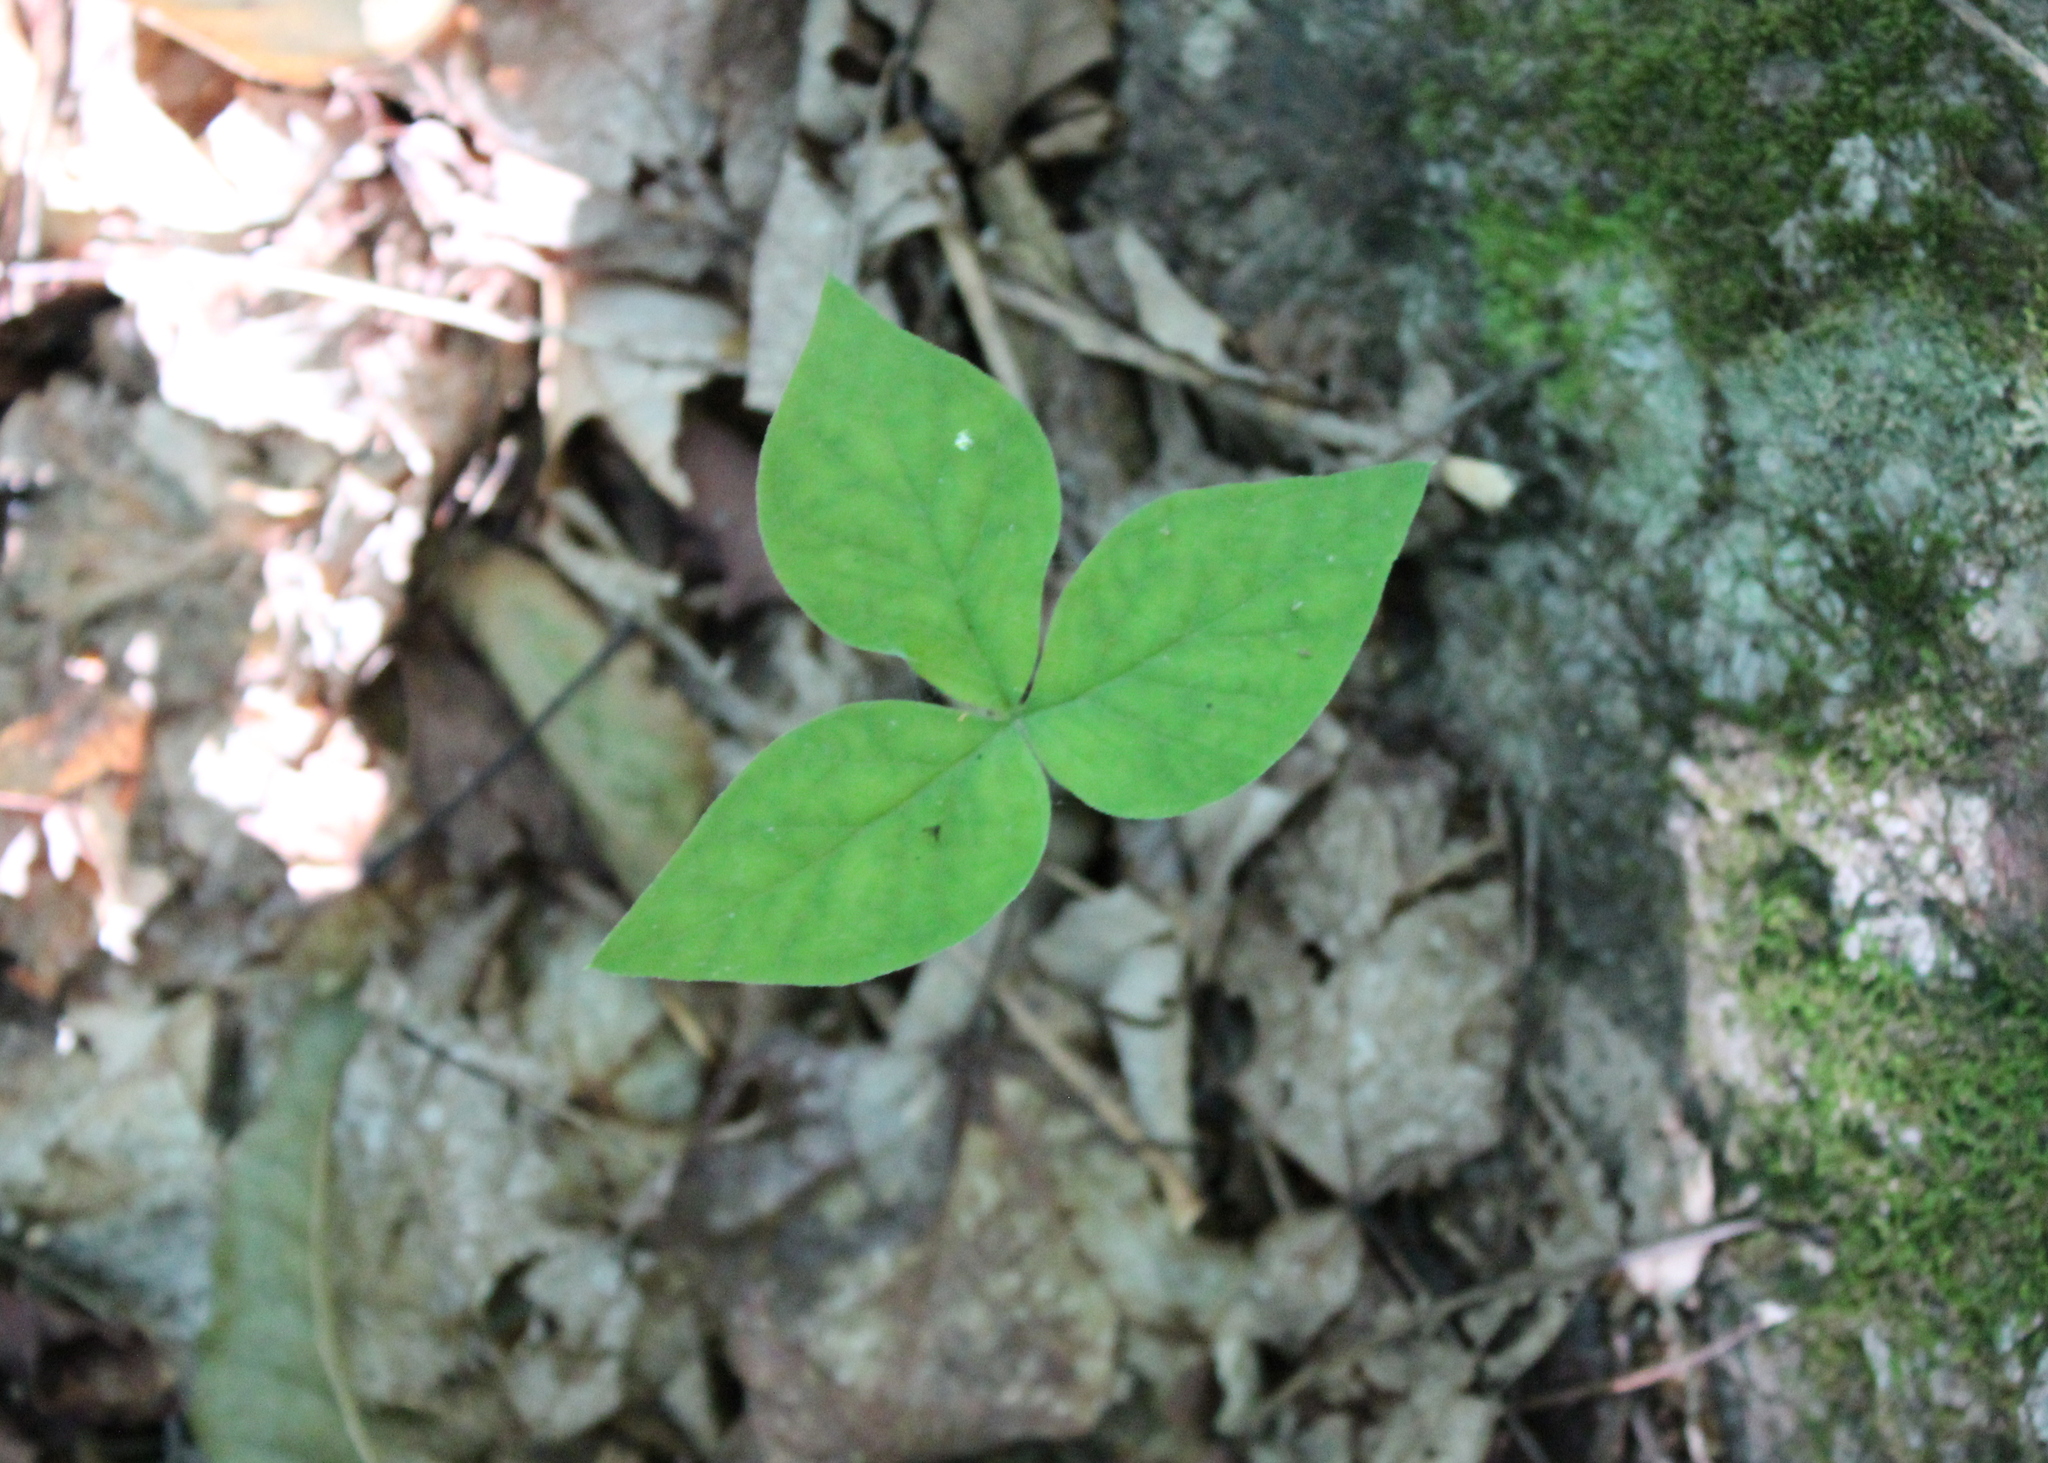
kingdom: Plantae
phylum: Tracheophyta
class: Liliopsida
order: Alismatales
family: Araceae
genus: Arisaema
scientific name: Arisaema triphyllum
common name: Jack-in-the-pulpit
